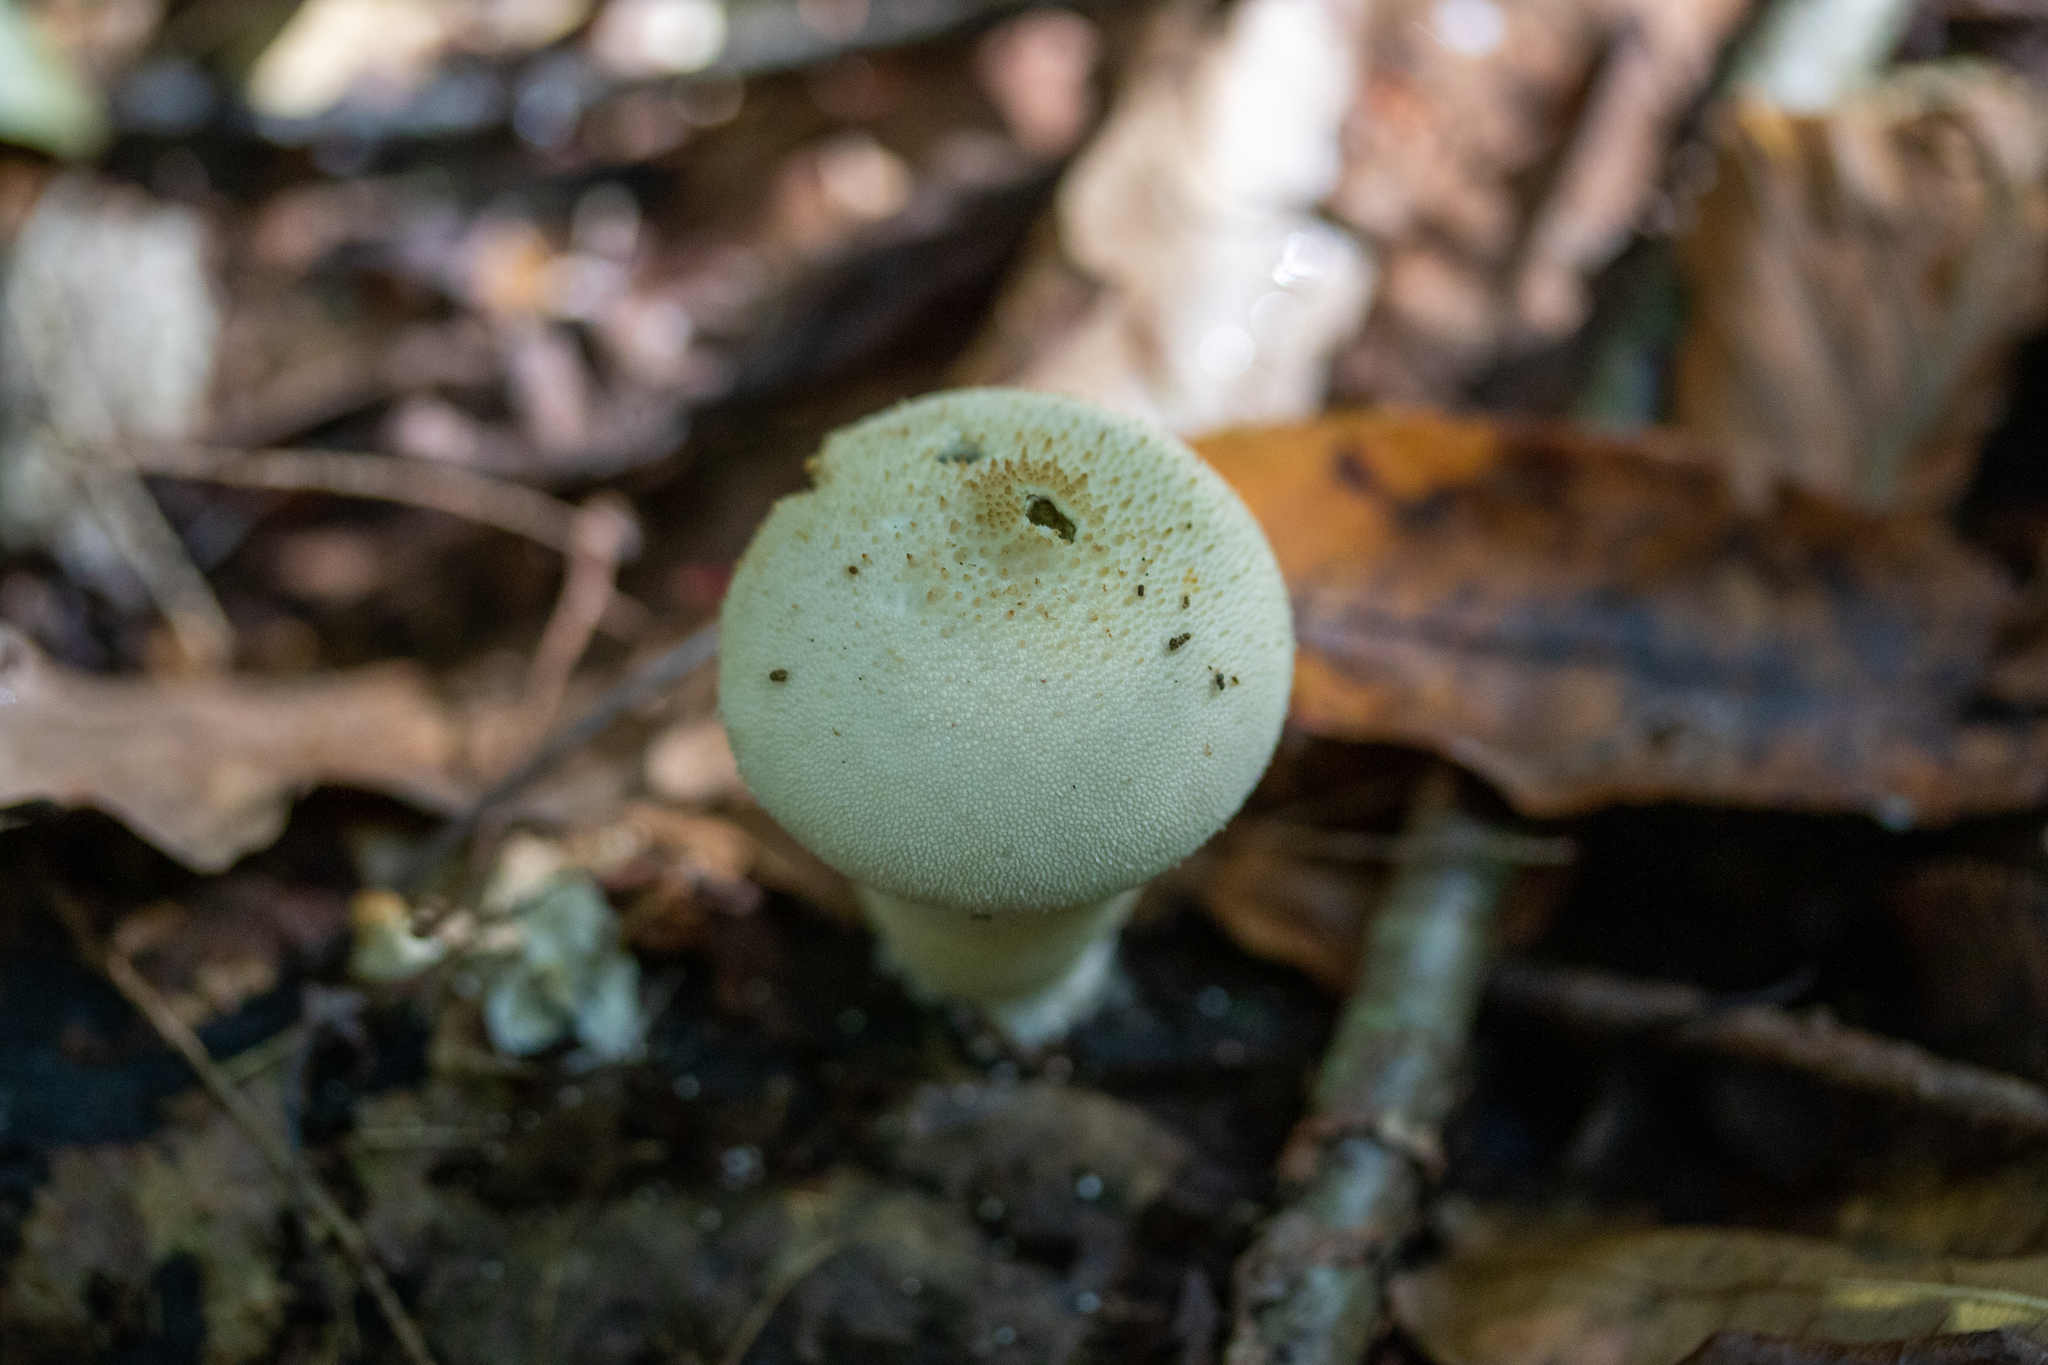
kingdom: Fungi
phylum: Basidiomycota
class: Agaricomycetes
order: Agaricales
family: Lycoperdaceae
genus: Lycoperdon
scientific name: Lycoperdon perlatum
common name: Common puffball
